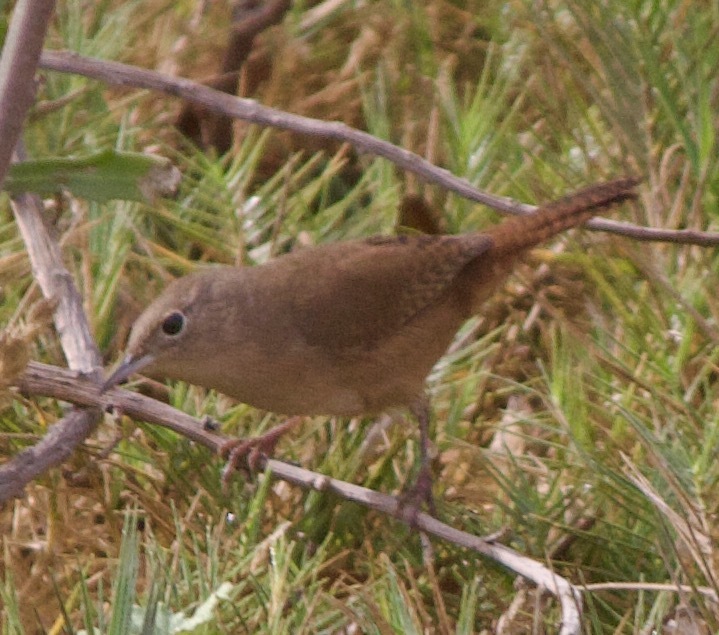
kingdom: Animalia
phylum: Chordata
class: Aves
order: Passeriformes
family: Troglodytidae
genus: Troglodytes
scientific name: Troglodytes aedon
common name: House wren
